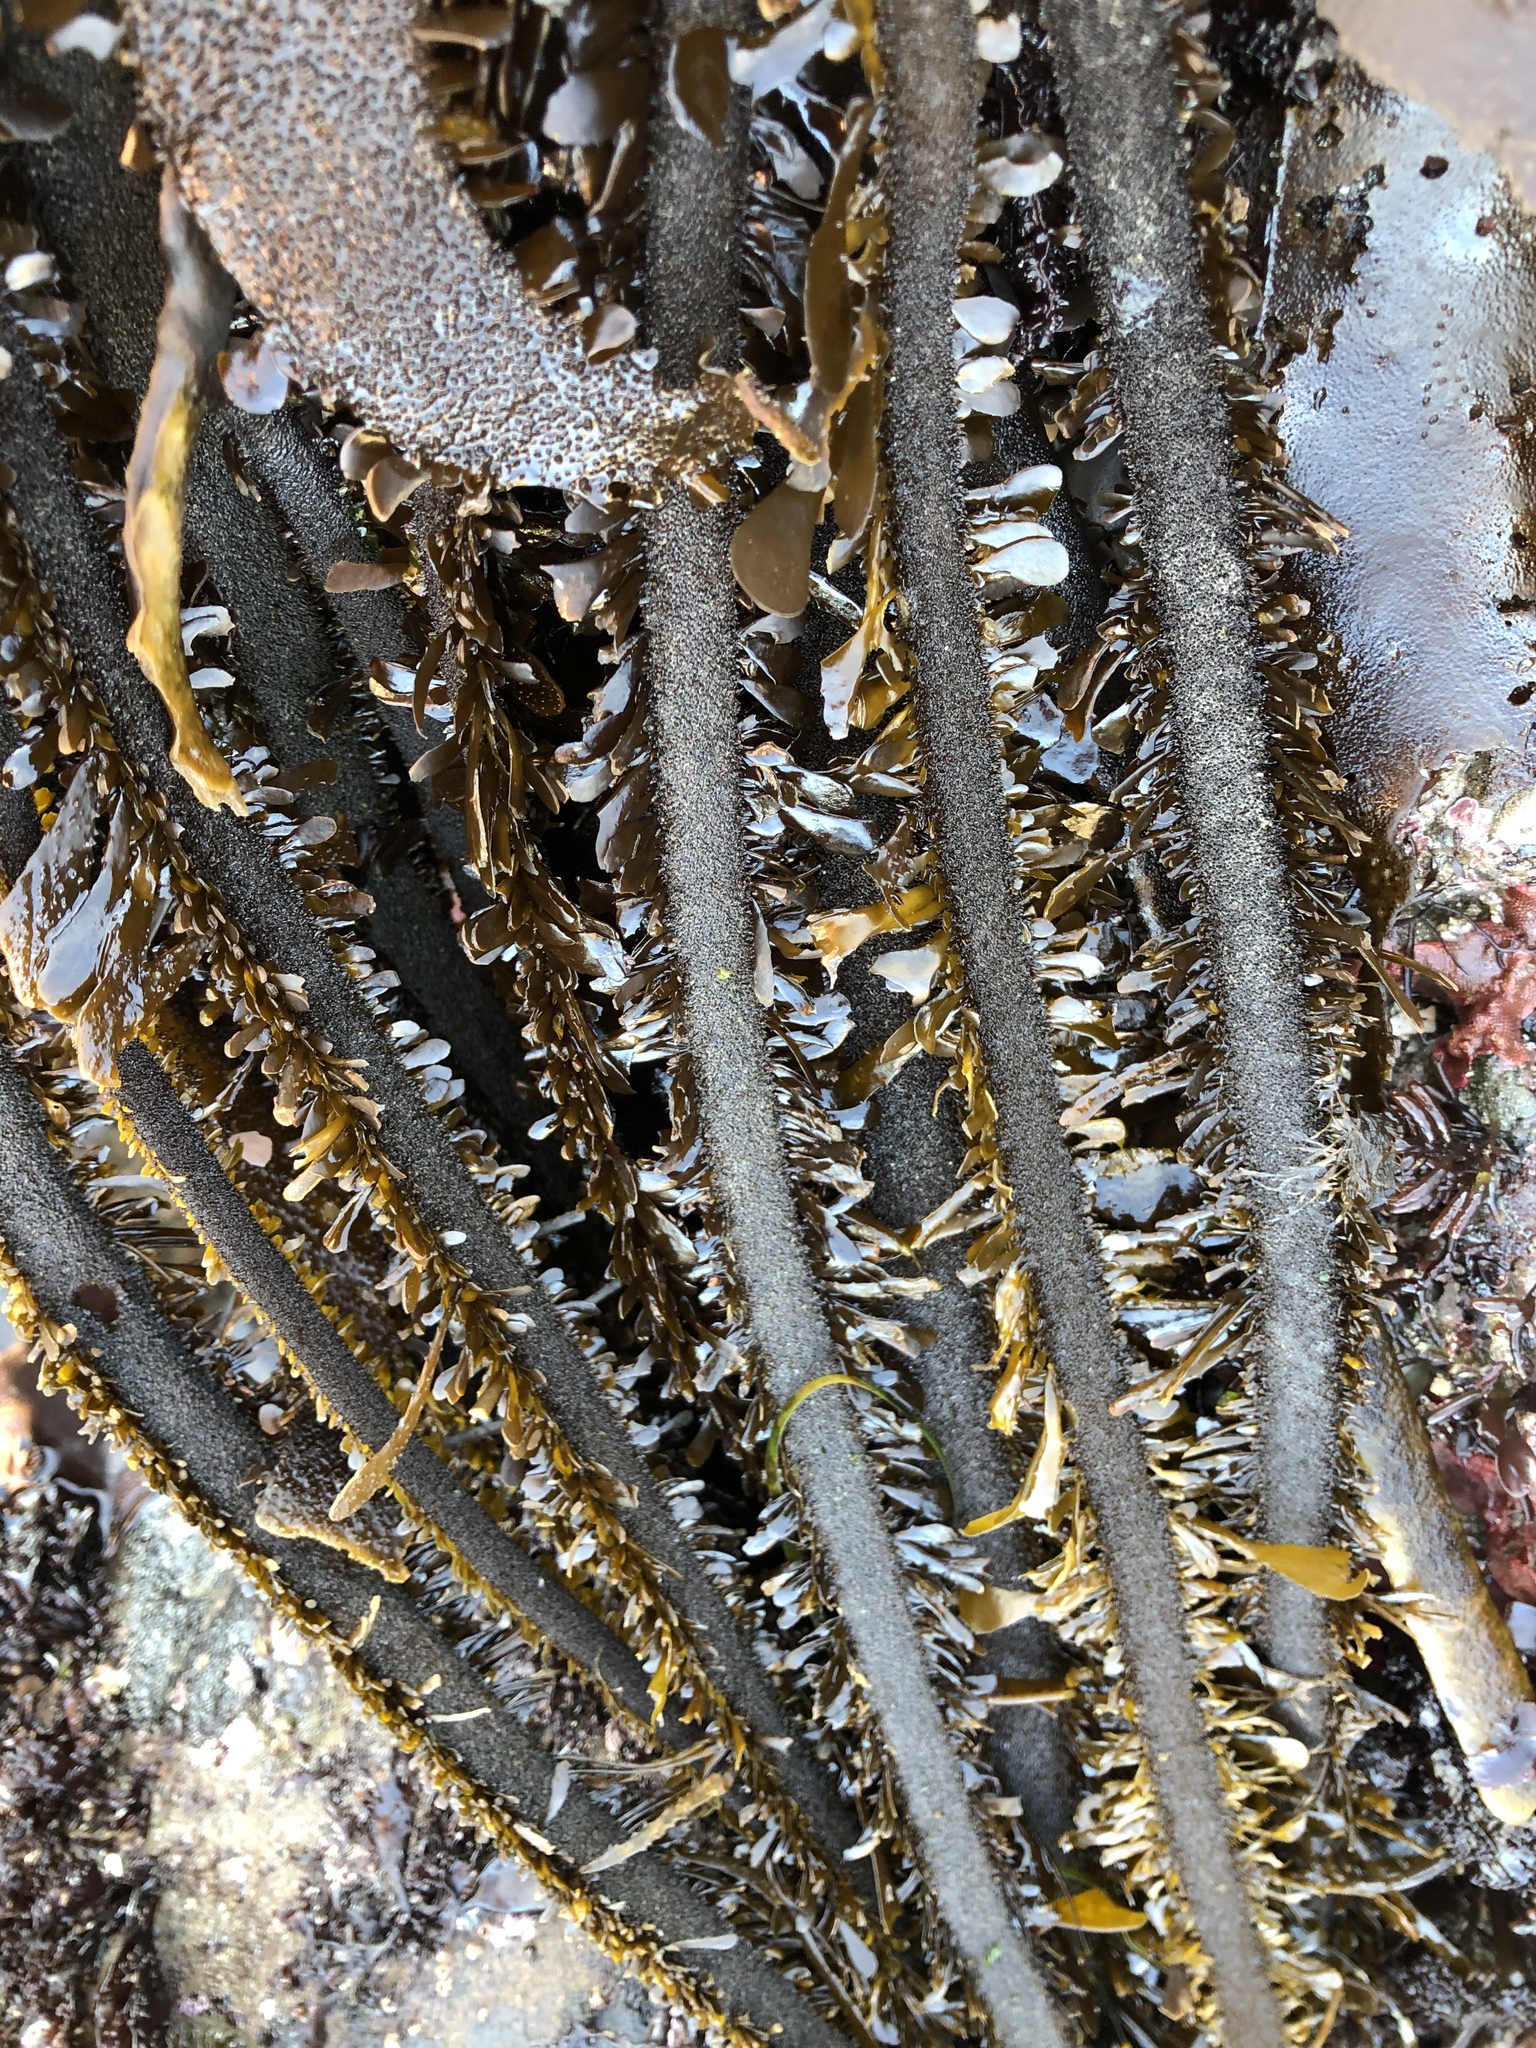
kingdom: Chromista
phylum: Ochrophyta
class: Phaeophyceae
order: Laminariales
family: Lessoniaceae
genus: Egregia
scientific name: Egregia menziesii
